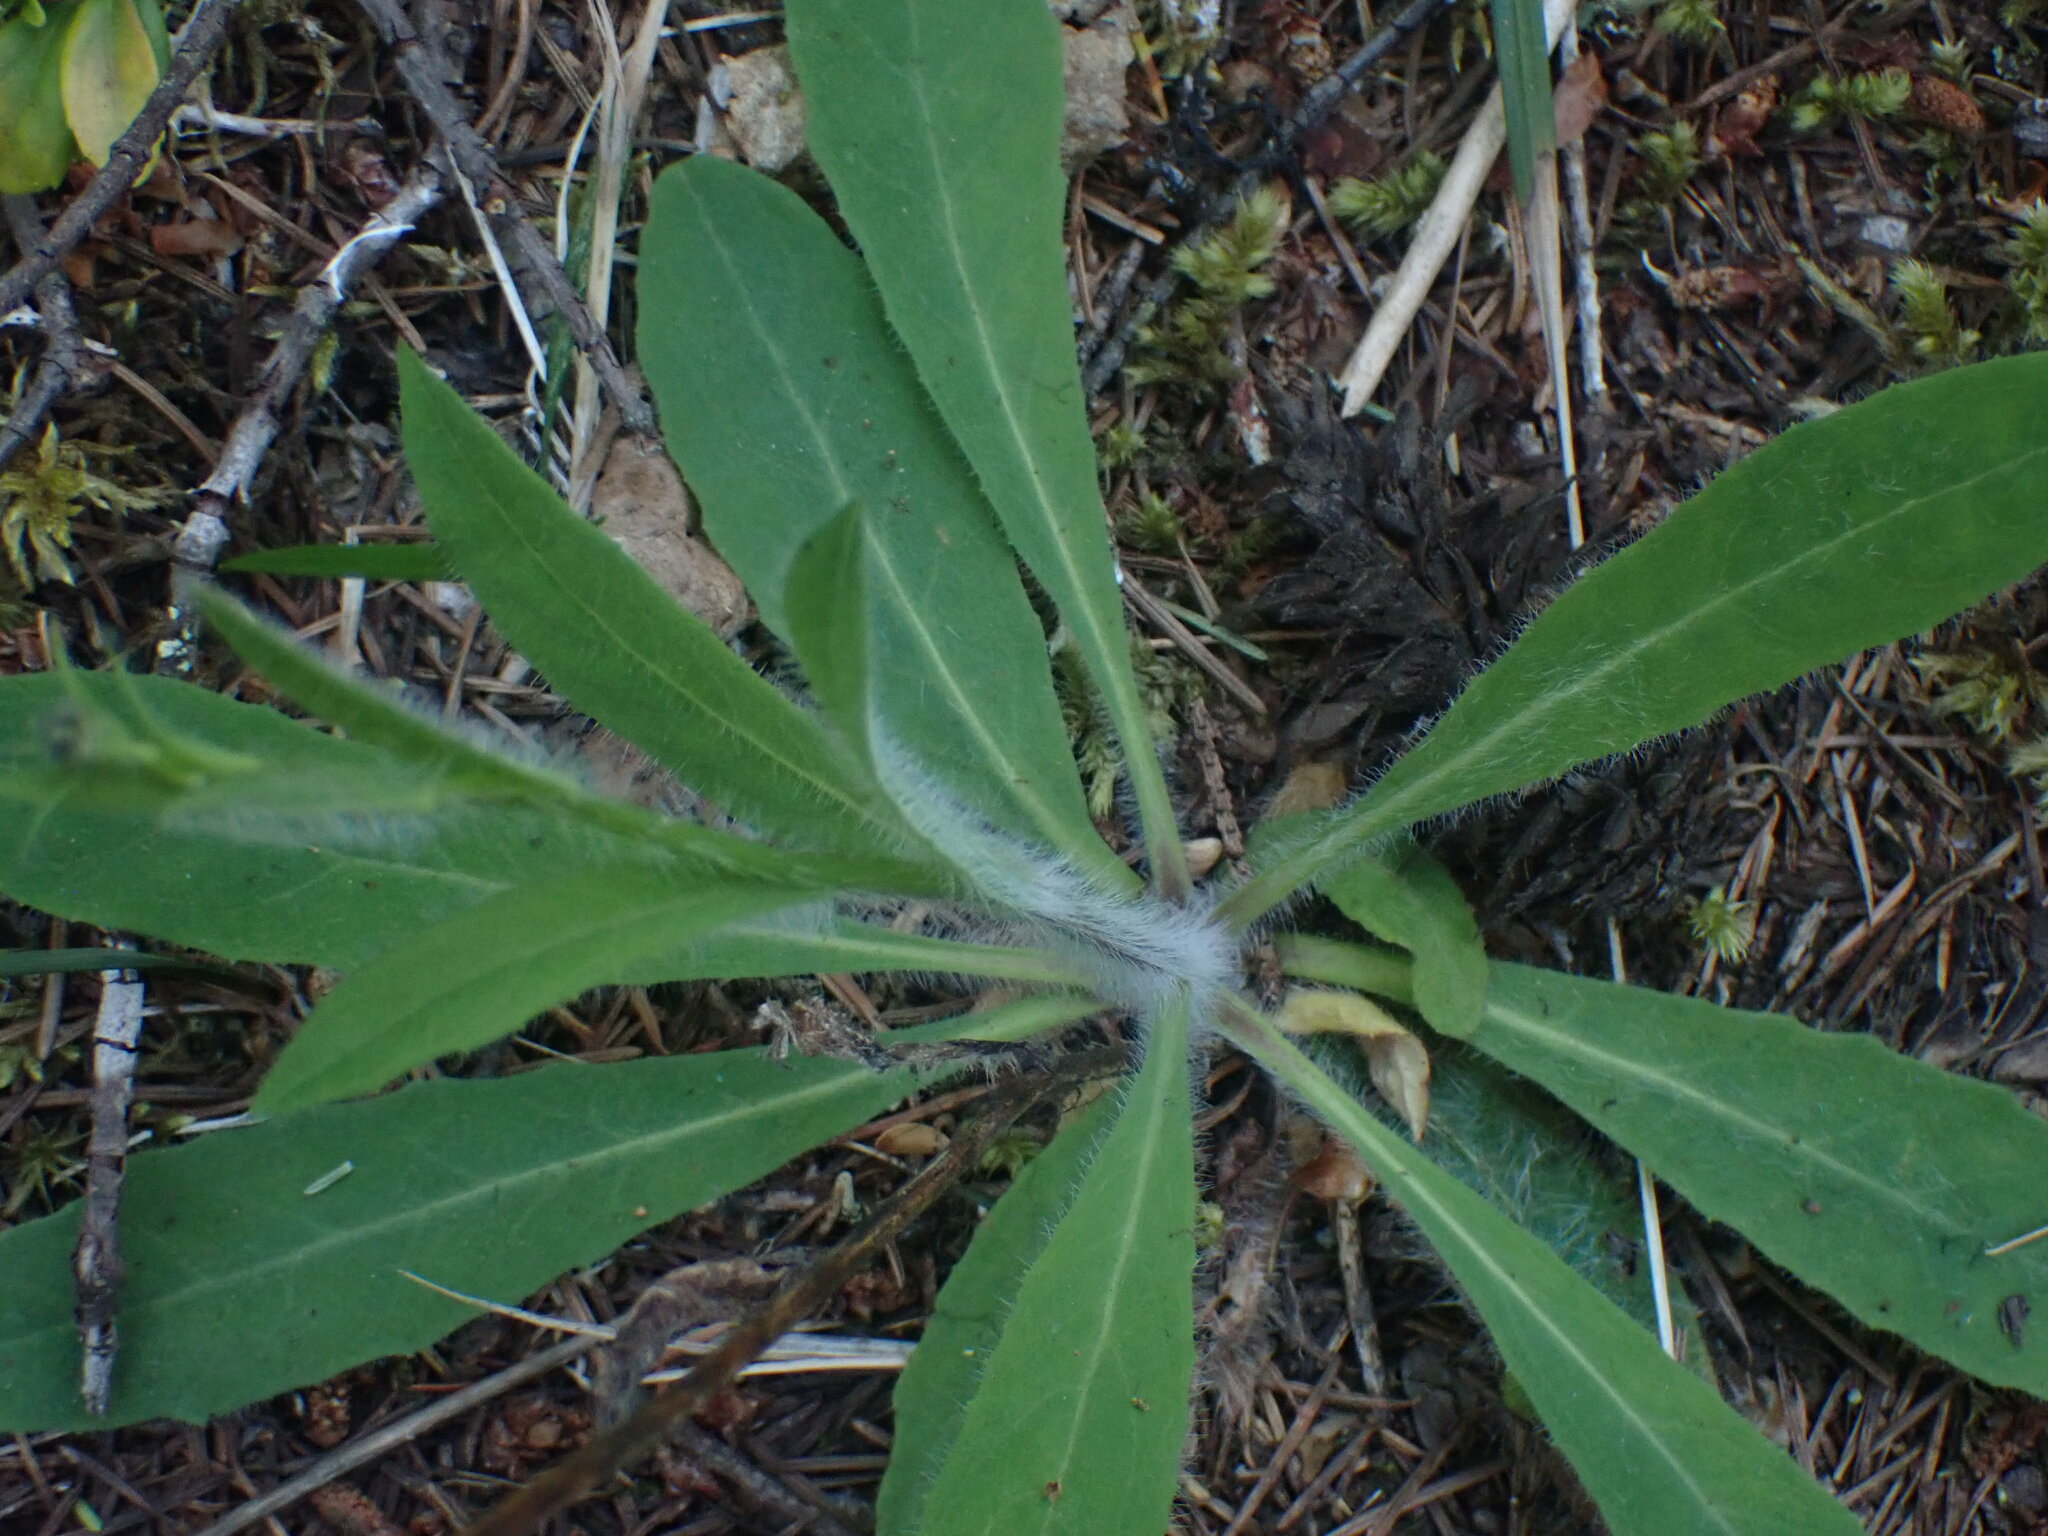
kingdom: Plantae
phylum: Tracheophyta
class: Magnoliopsida
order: Asterales
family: Asteraceae
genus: Hieracium
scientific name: Hieracium albiflorum
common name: White hawkweed
